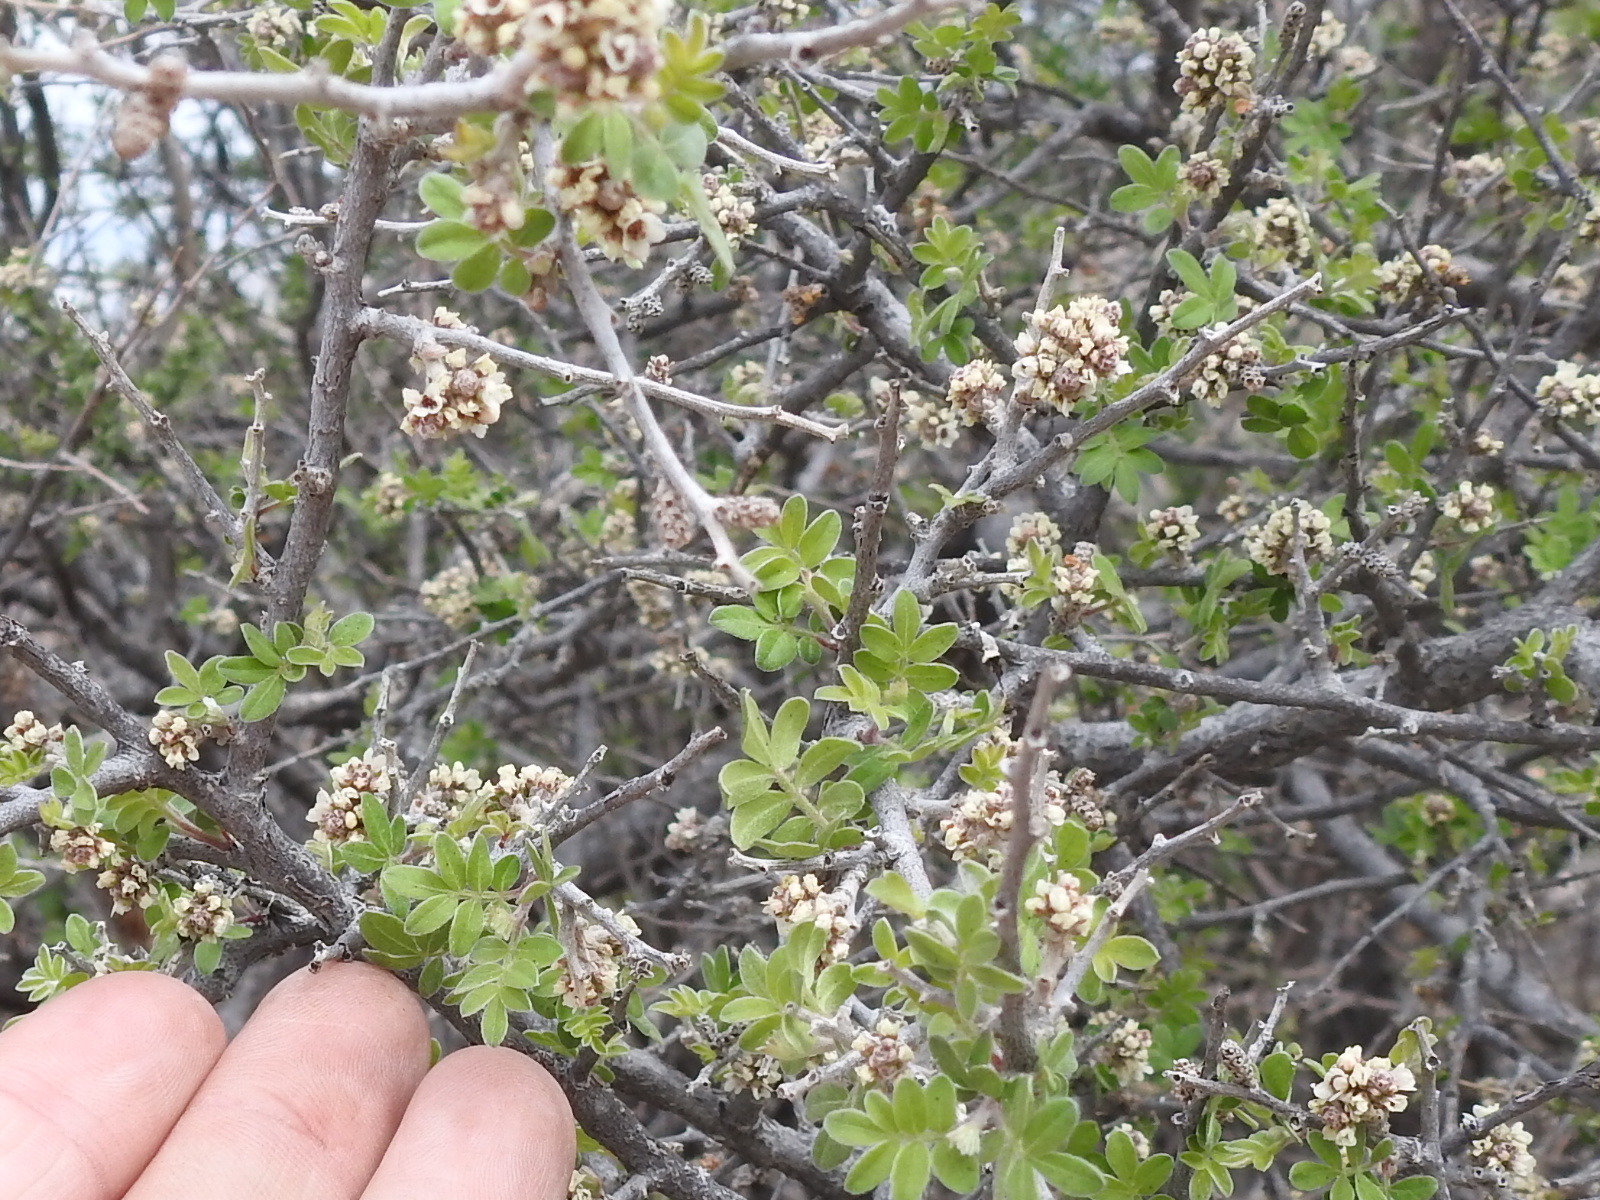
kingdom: Plantae
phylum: Tracheophyta
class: Magnoliopsida
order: Sapindales
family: Anacardiaceae
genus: Rhus
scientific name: Rhus microphylla
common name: Desert sumac
